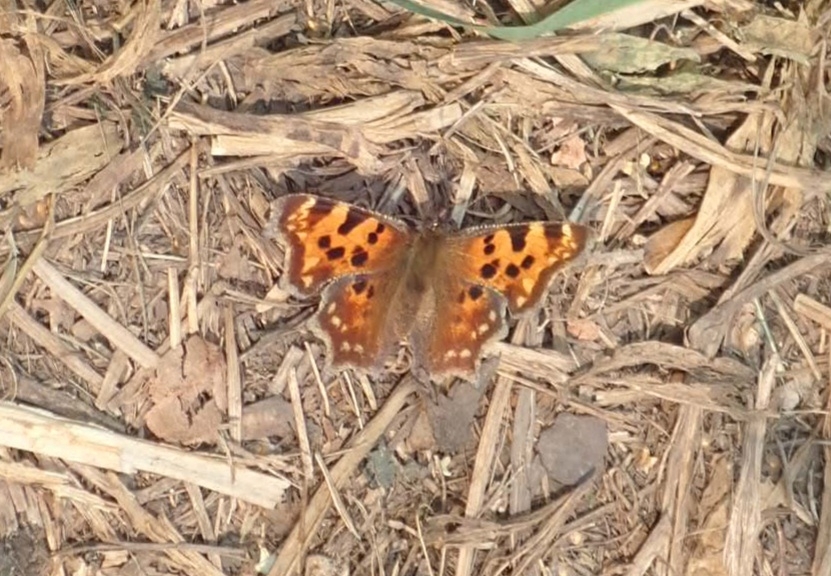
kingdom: Animalia
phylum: Arthropoda
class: Insecta
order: Lepidoptera
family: Nymphalidae
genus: Polygonia
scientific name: Polygonia c-album
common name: Comma
